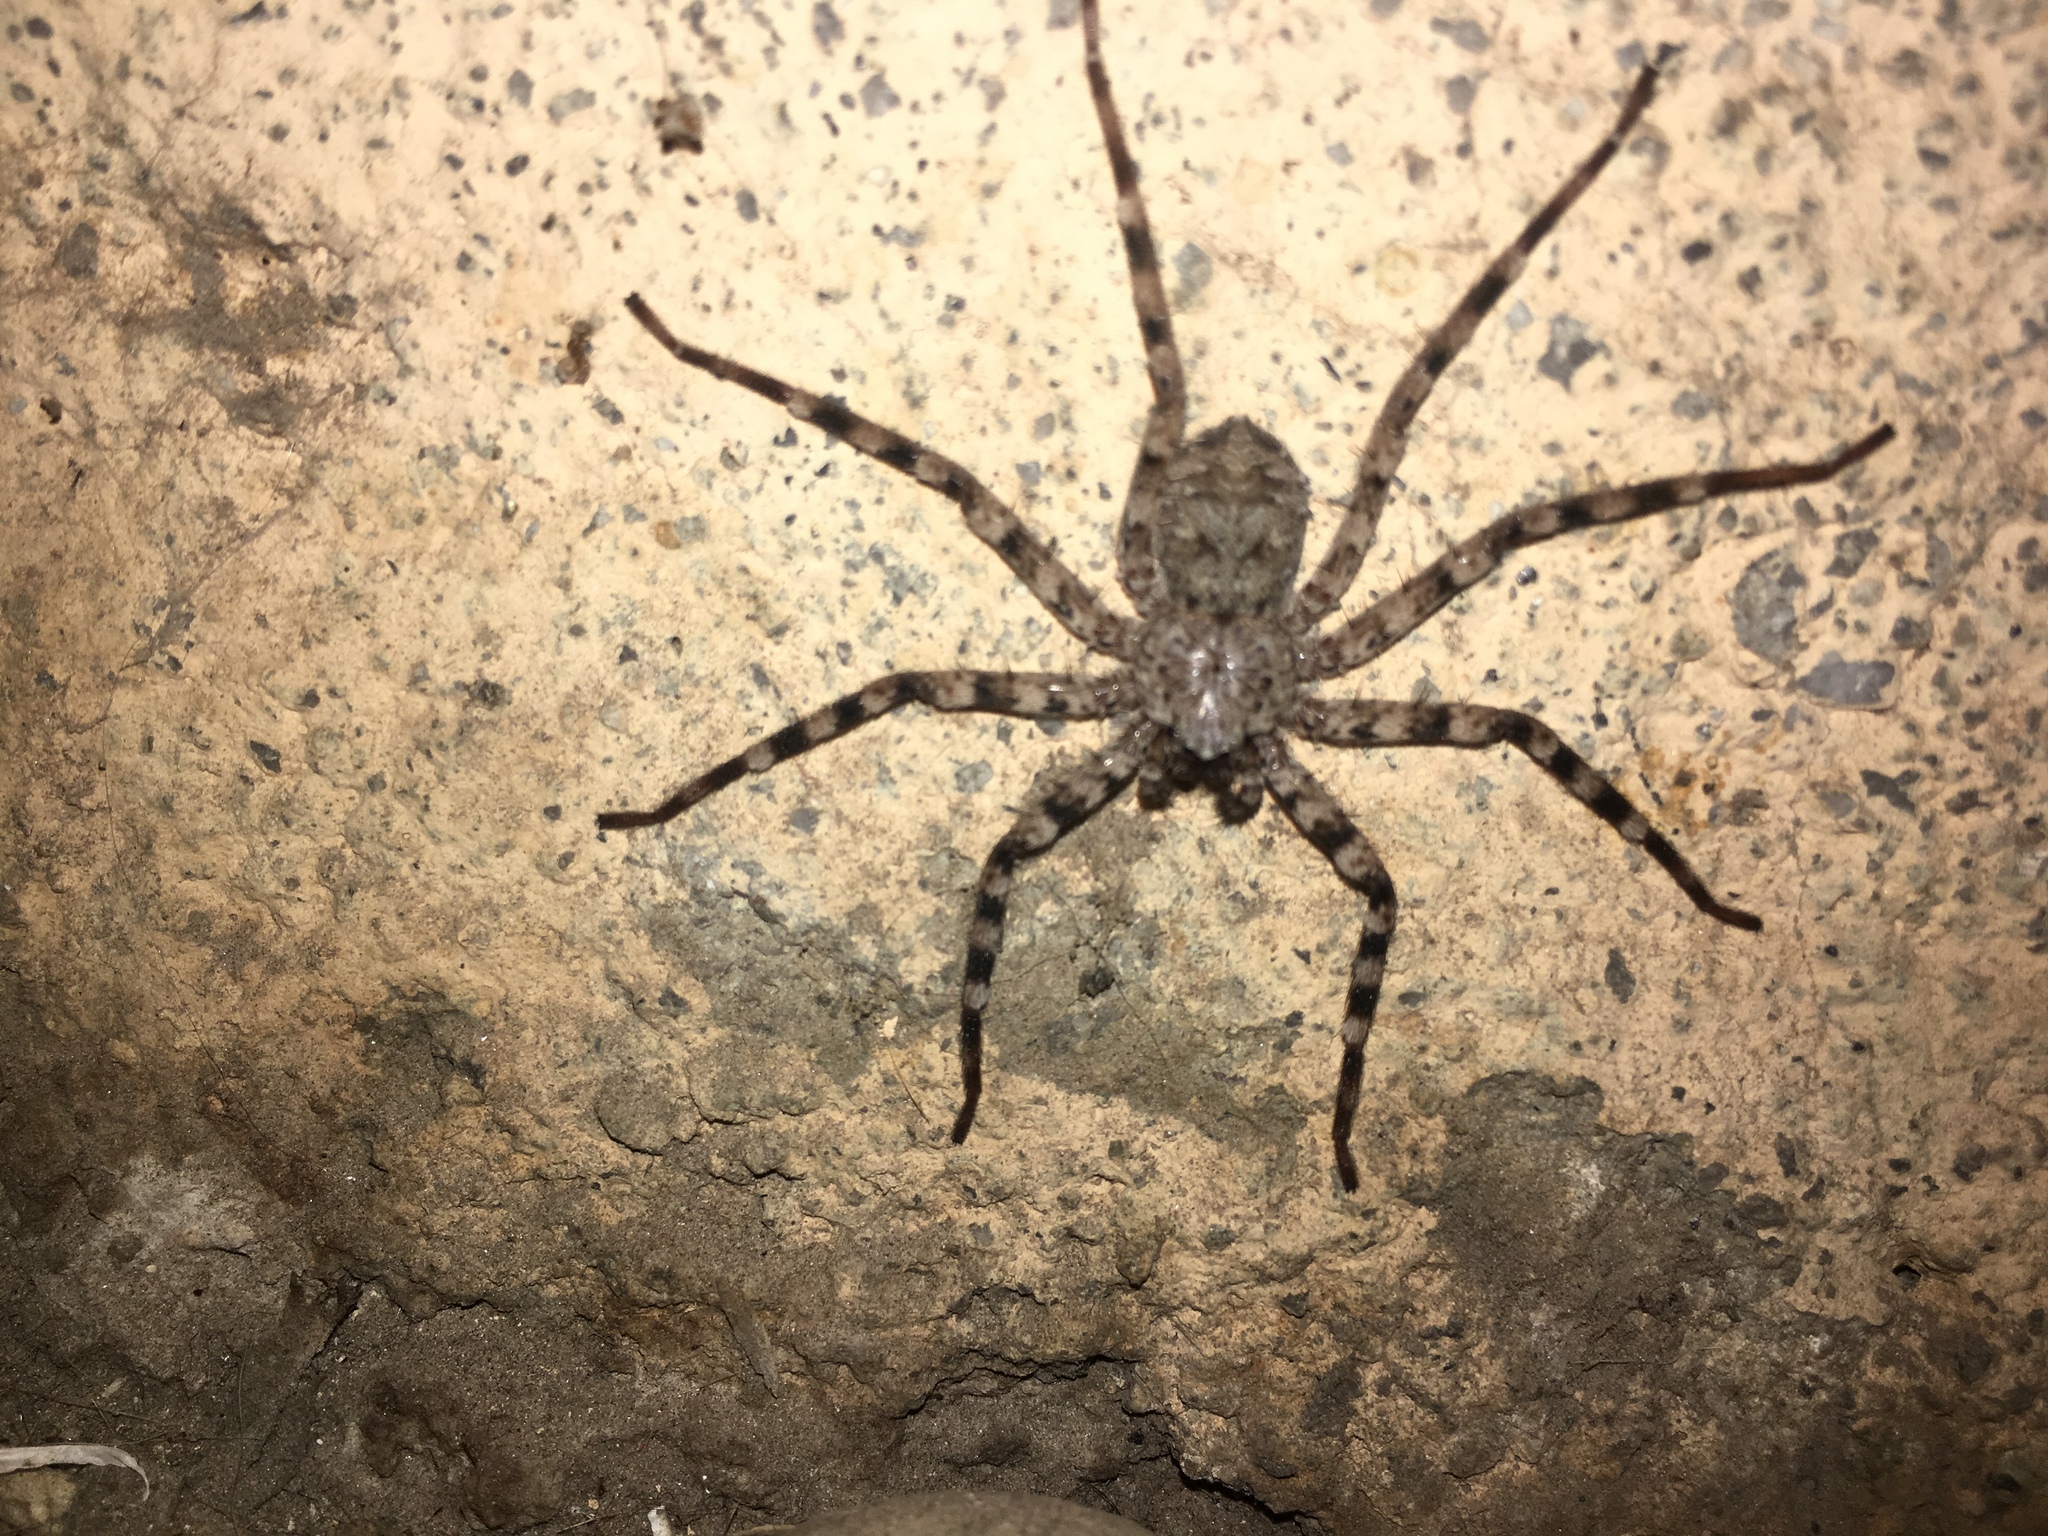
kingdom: Animalia
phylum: Arthropoda
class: Arachnida
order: Araneae
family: Selenopidae
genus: Selenops
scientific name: Selenops actophilus
